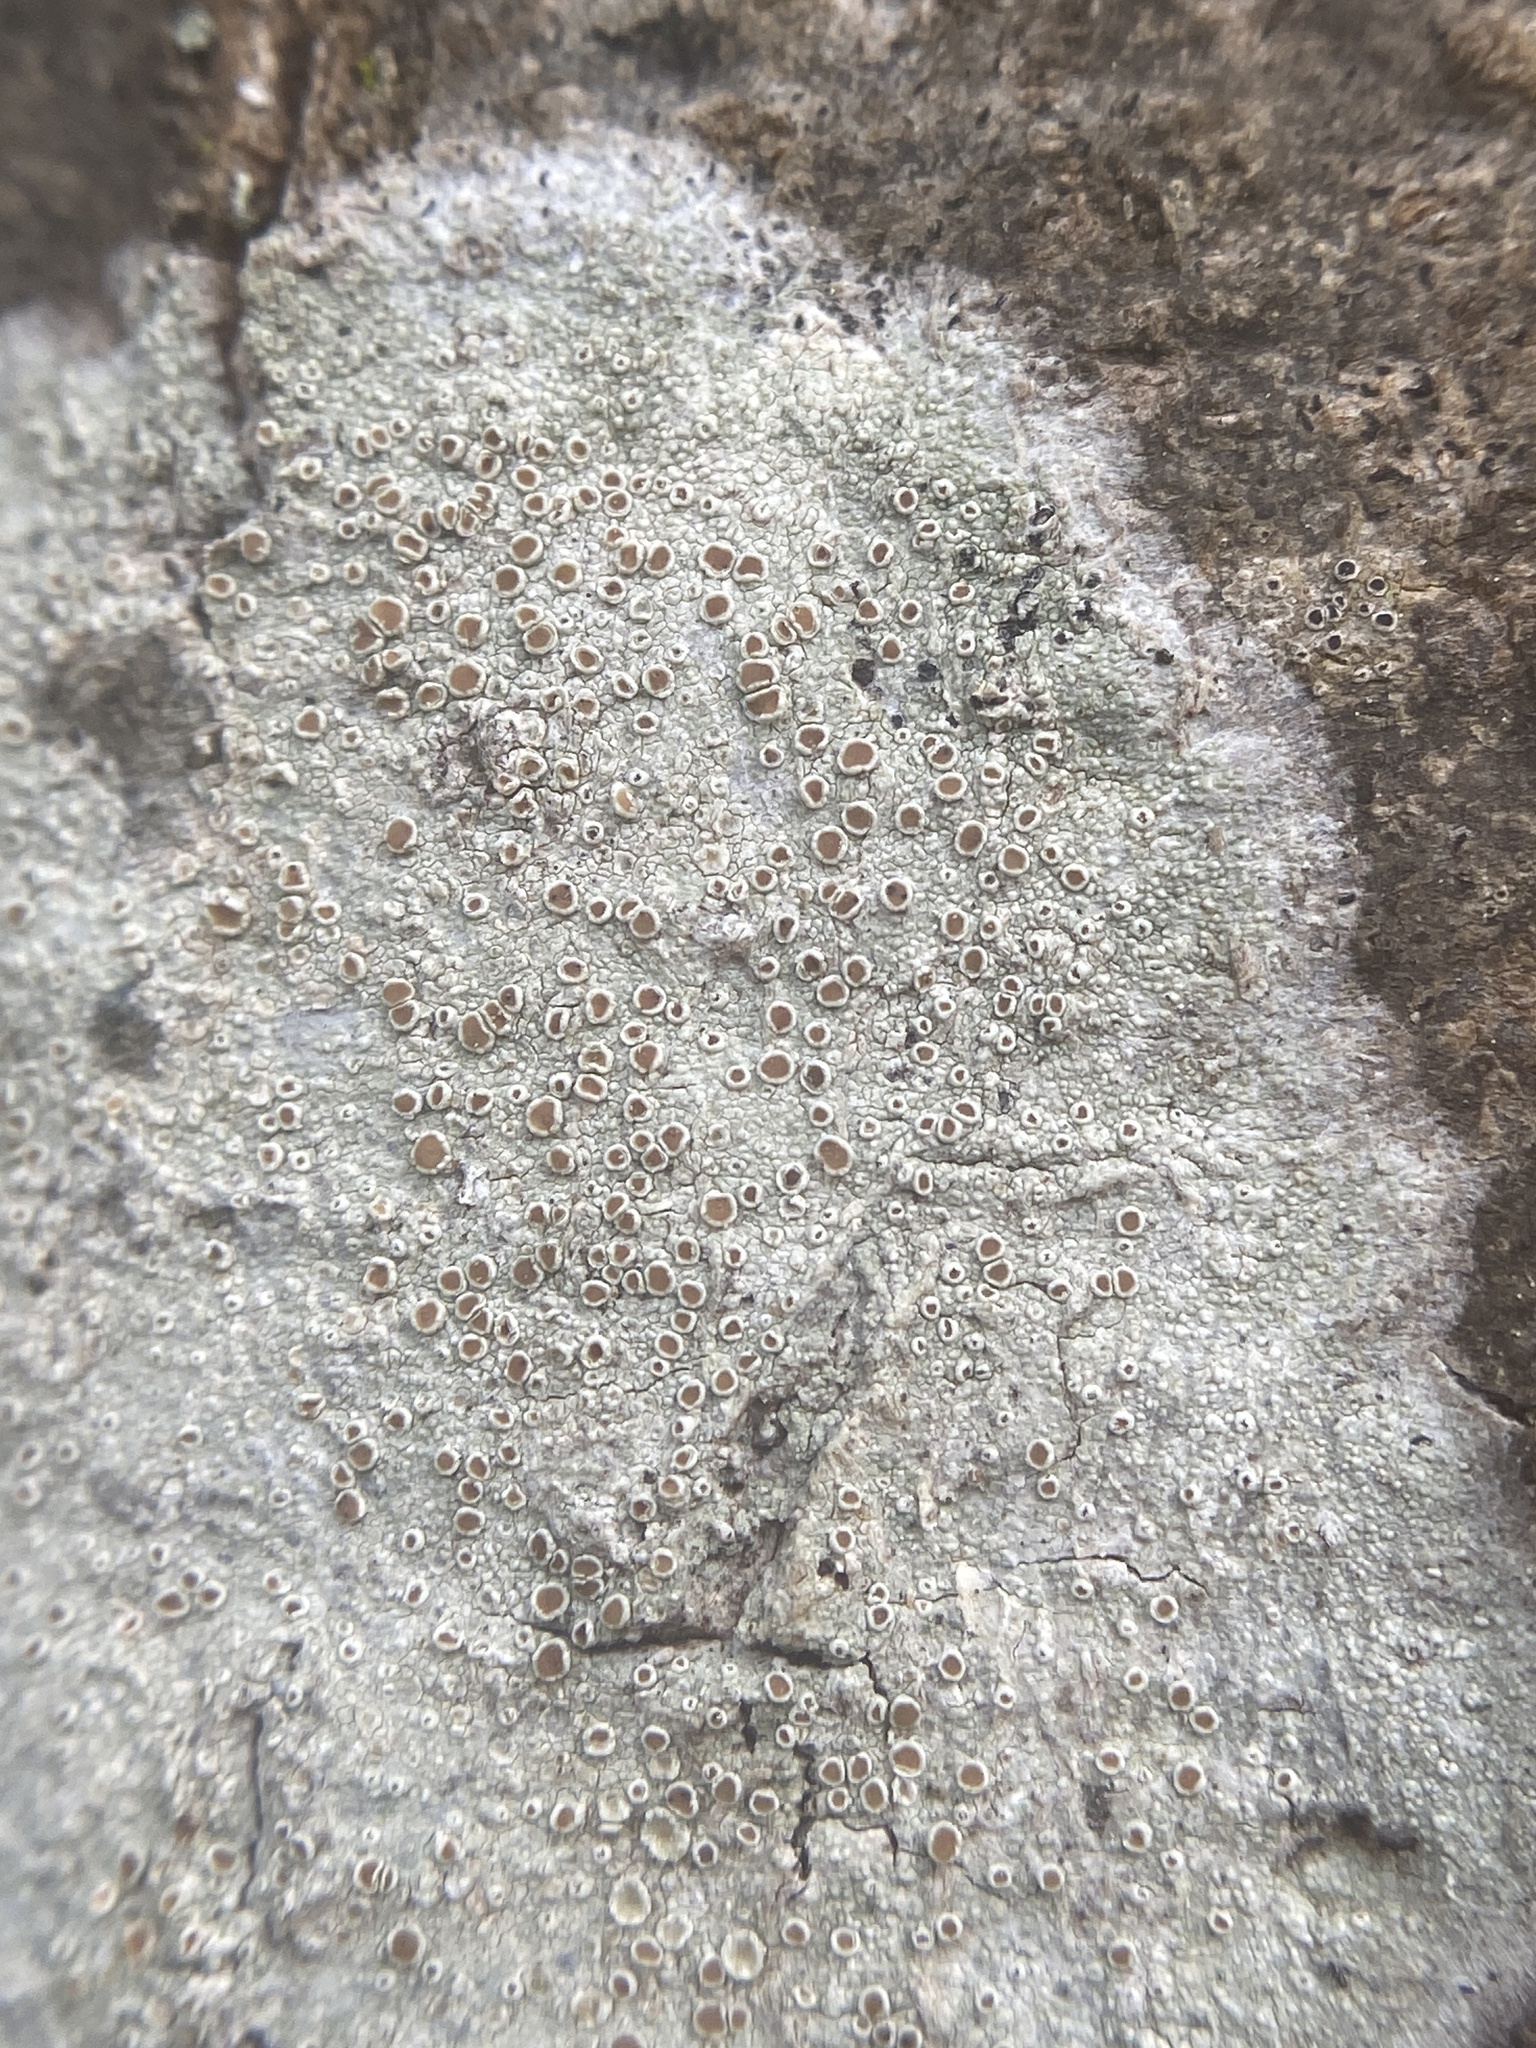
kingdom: Fungi
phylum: Ascomycota
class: Lecanoromycetes
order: Lecanorales
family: Lecanoraceae
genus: Lecanora
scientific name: Lecanora hybocarpa
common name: Bumpy rim-lichen
